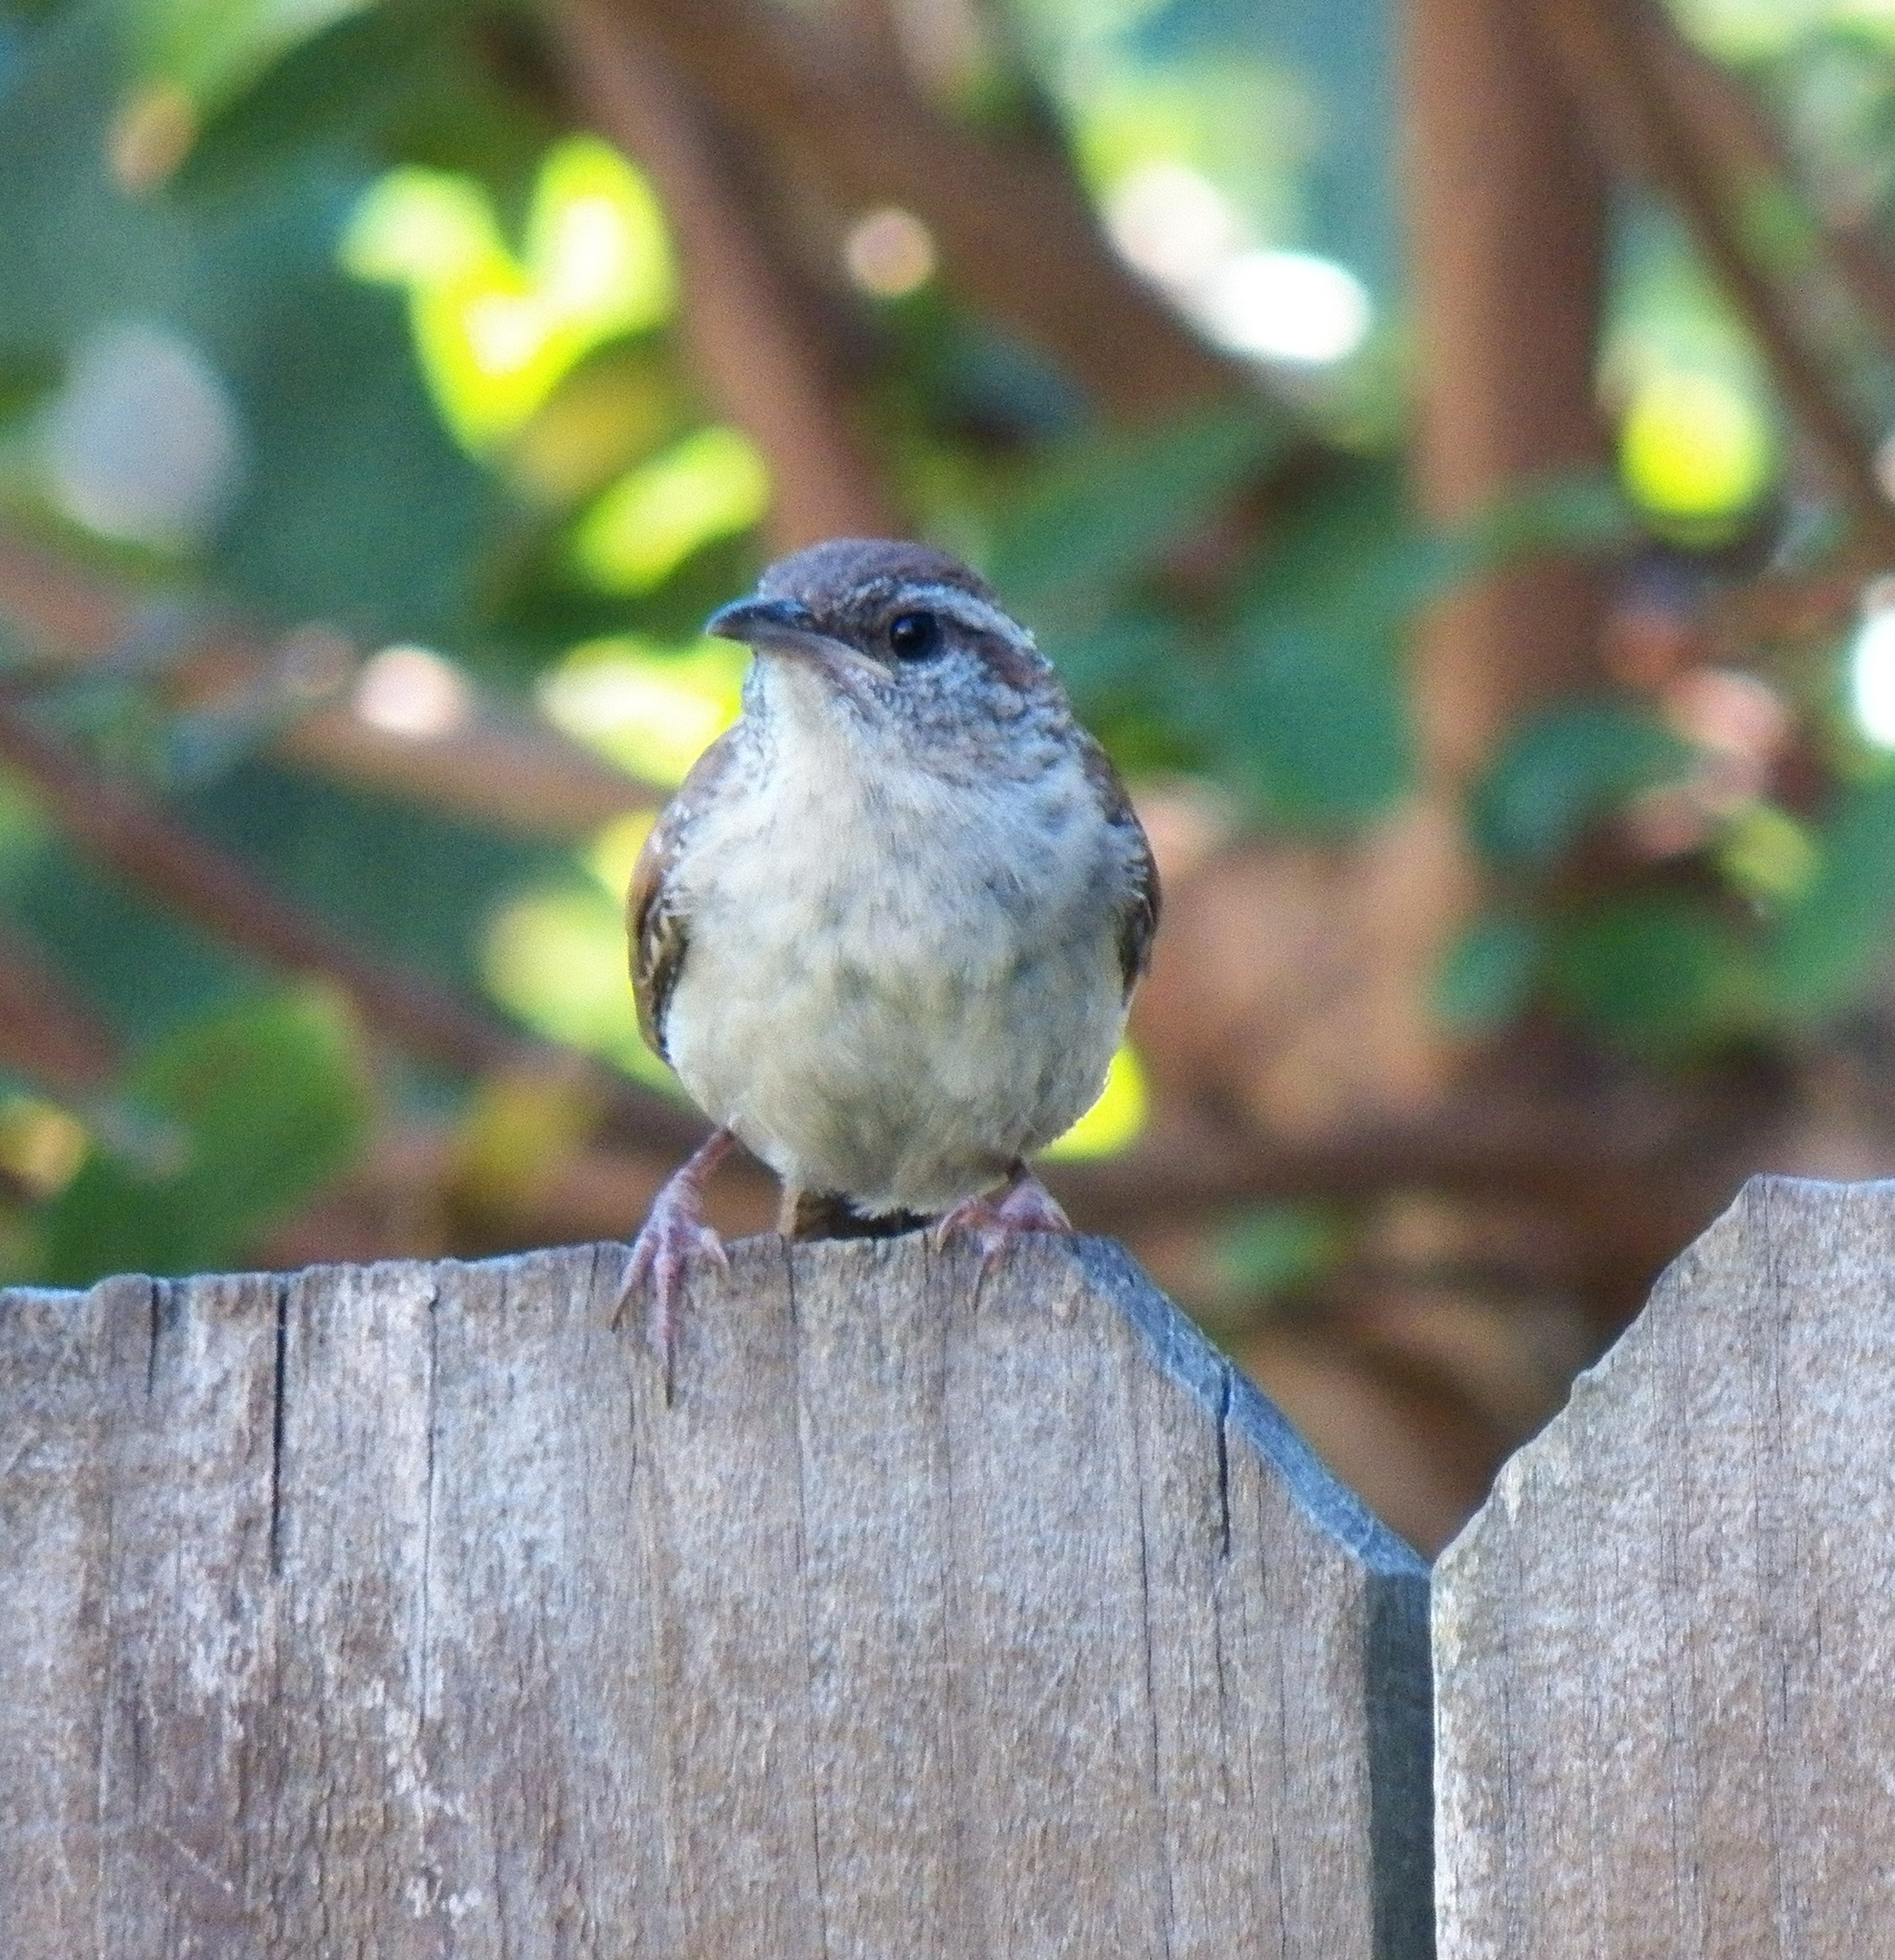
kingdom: Animalia
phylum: Chordata
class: Aves
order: Passeriformes
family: Troglodytidae
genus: Thryothorus
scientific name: Thryothorus ludovicianus
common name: Carolina wren
